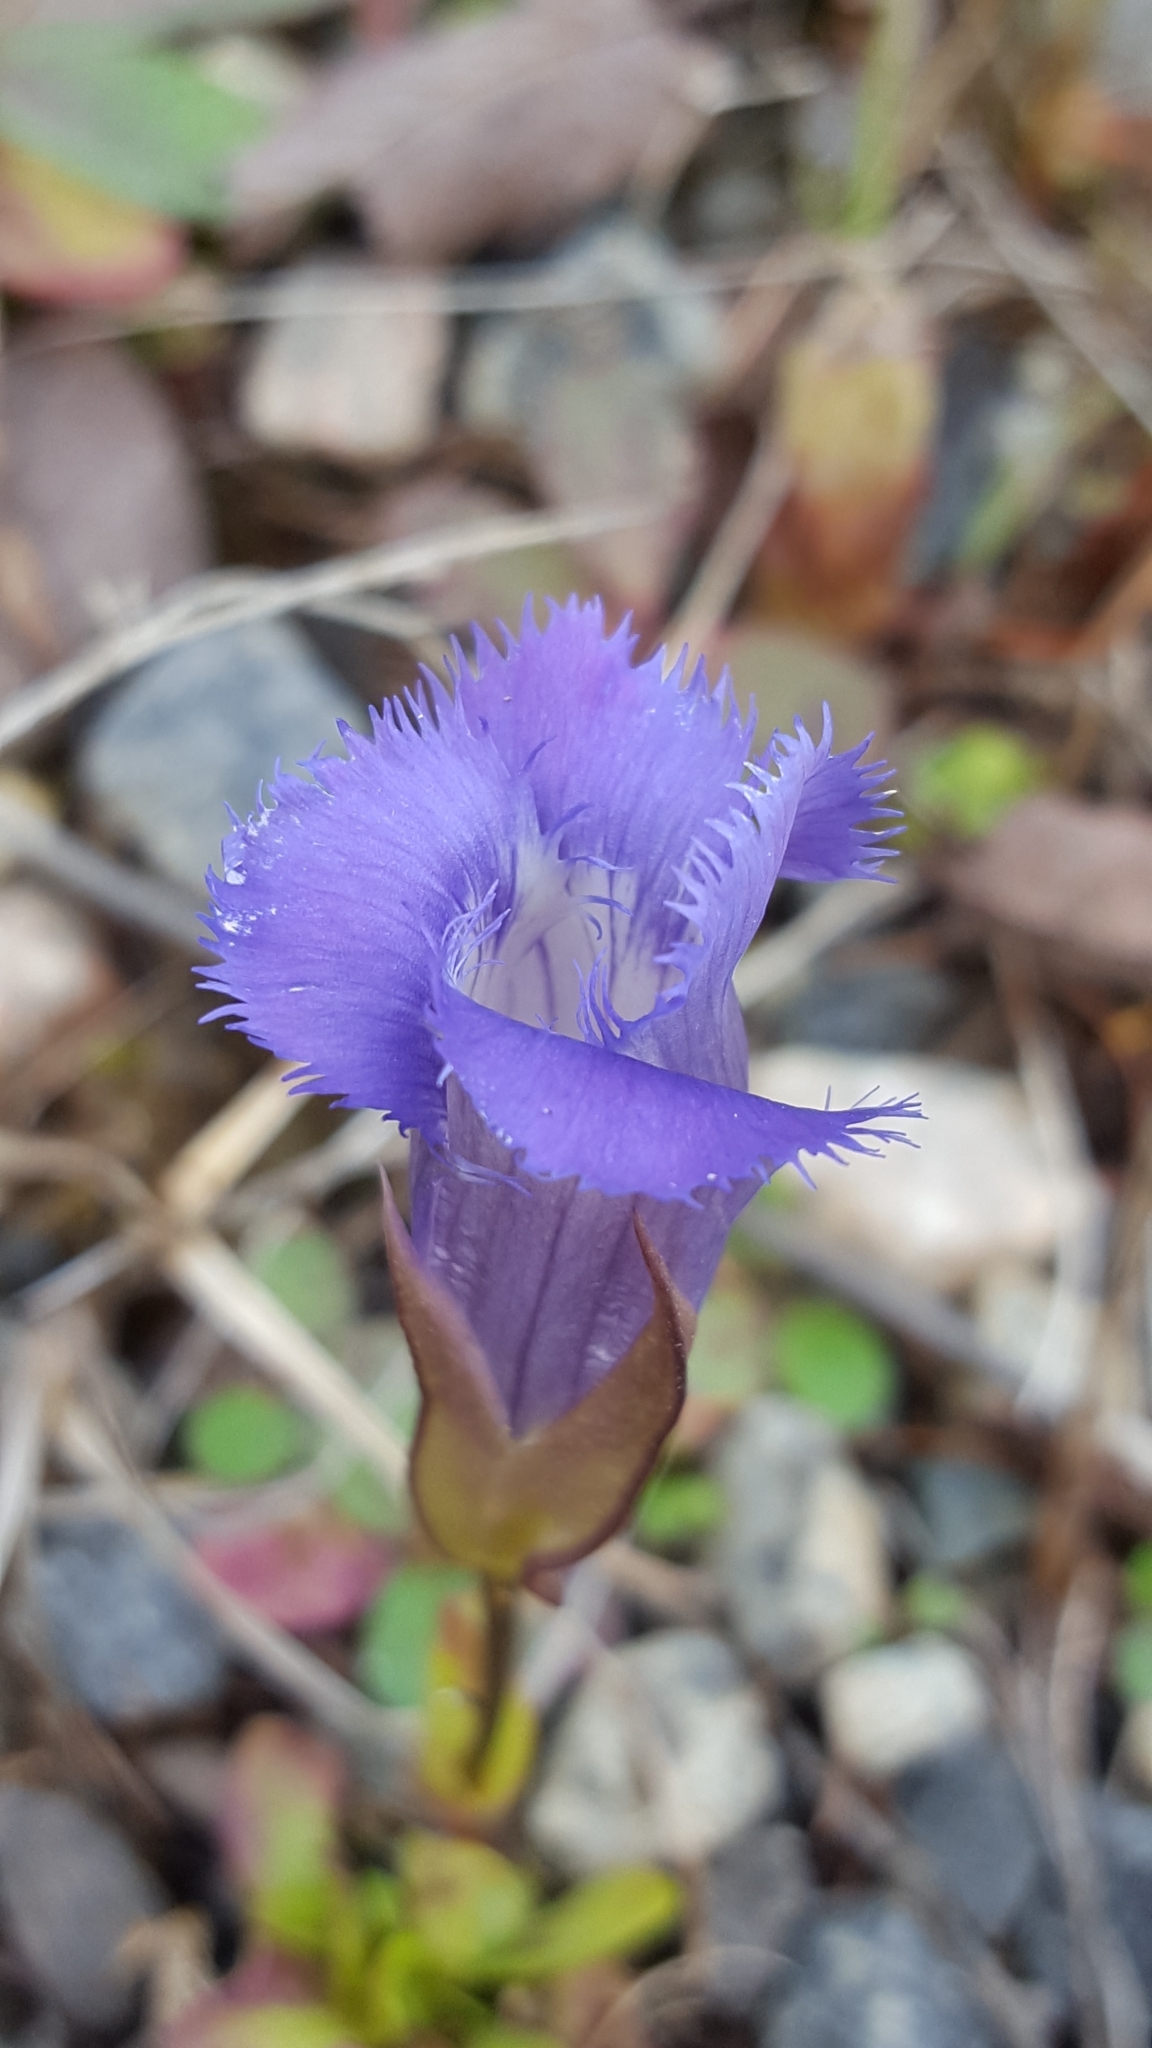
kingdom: Plantae
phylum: Tracheophyta
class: Magnoliopsida
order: Gentianales
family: Gentianaceae
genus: Gentianopsis
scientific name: Gentianopsis crinita
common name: Fringed-gentian
